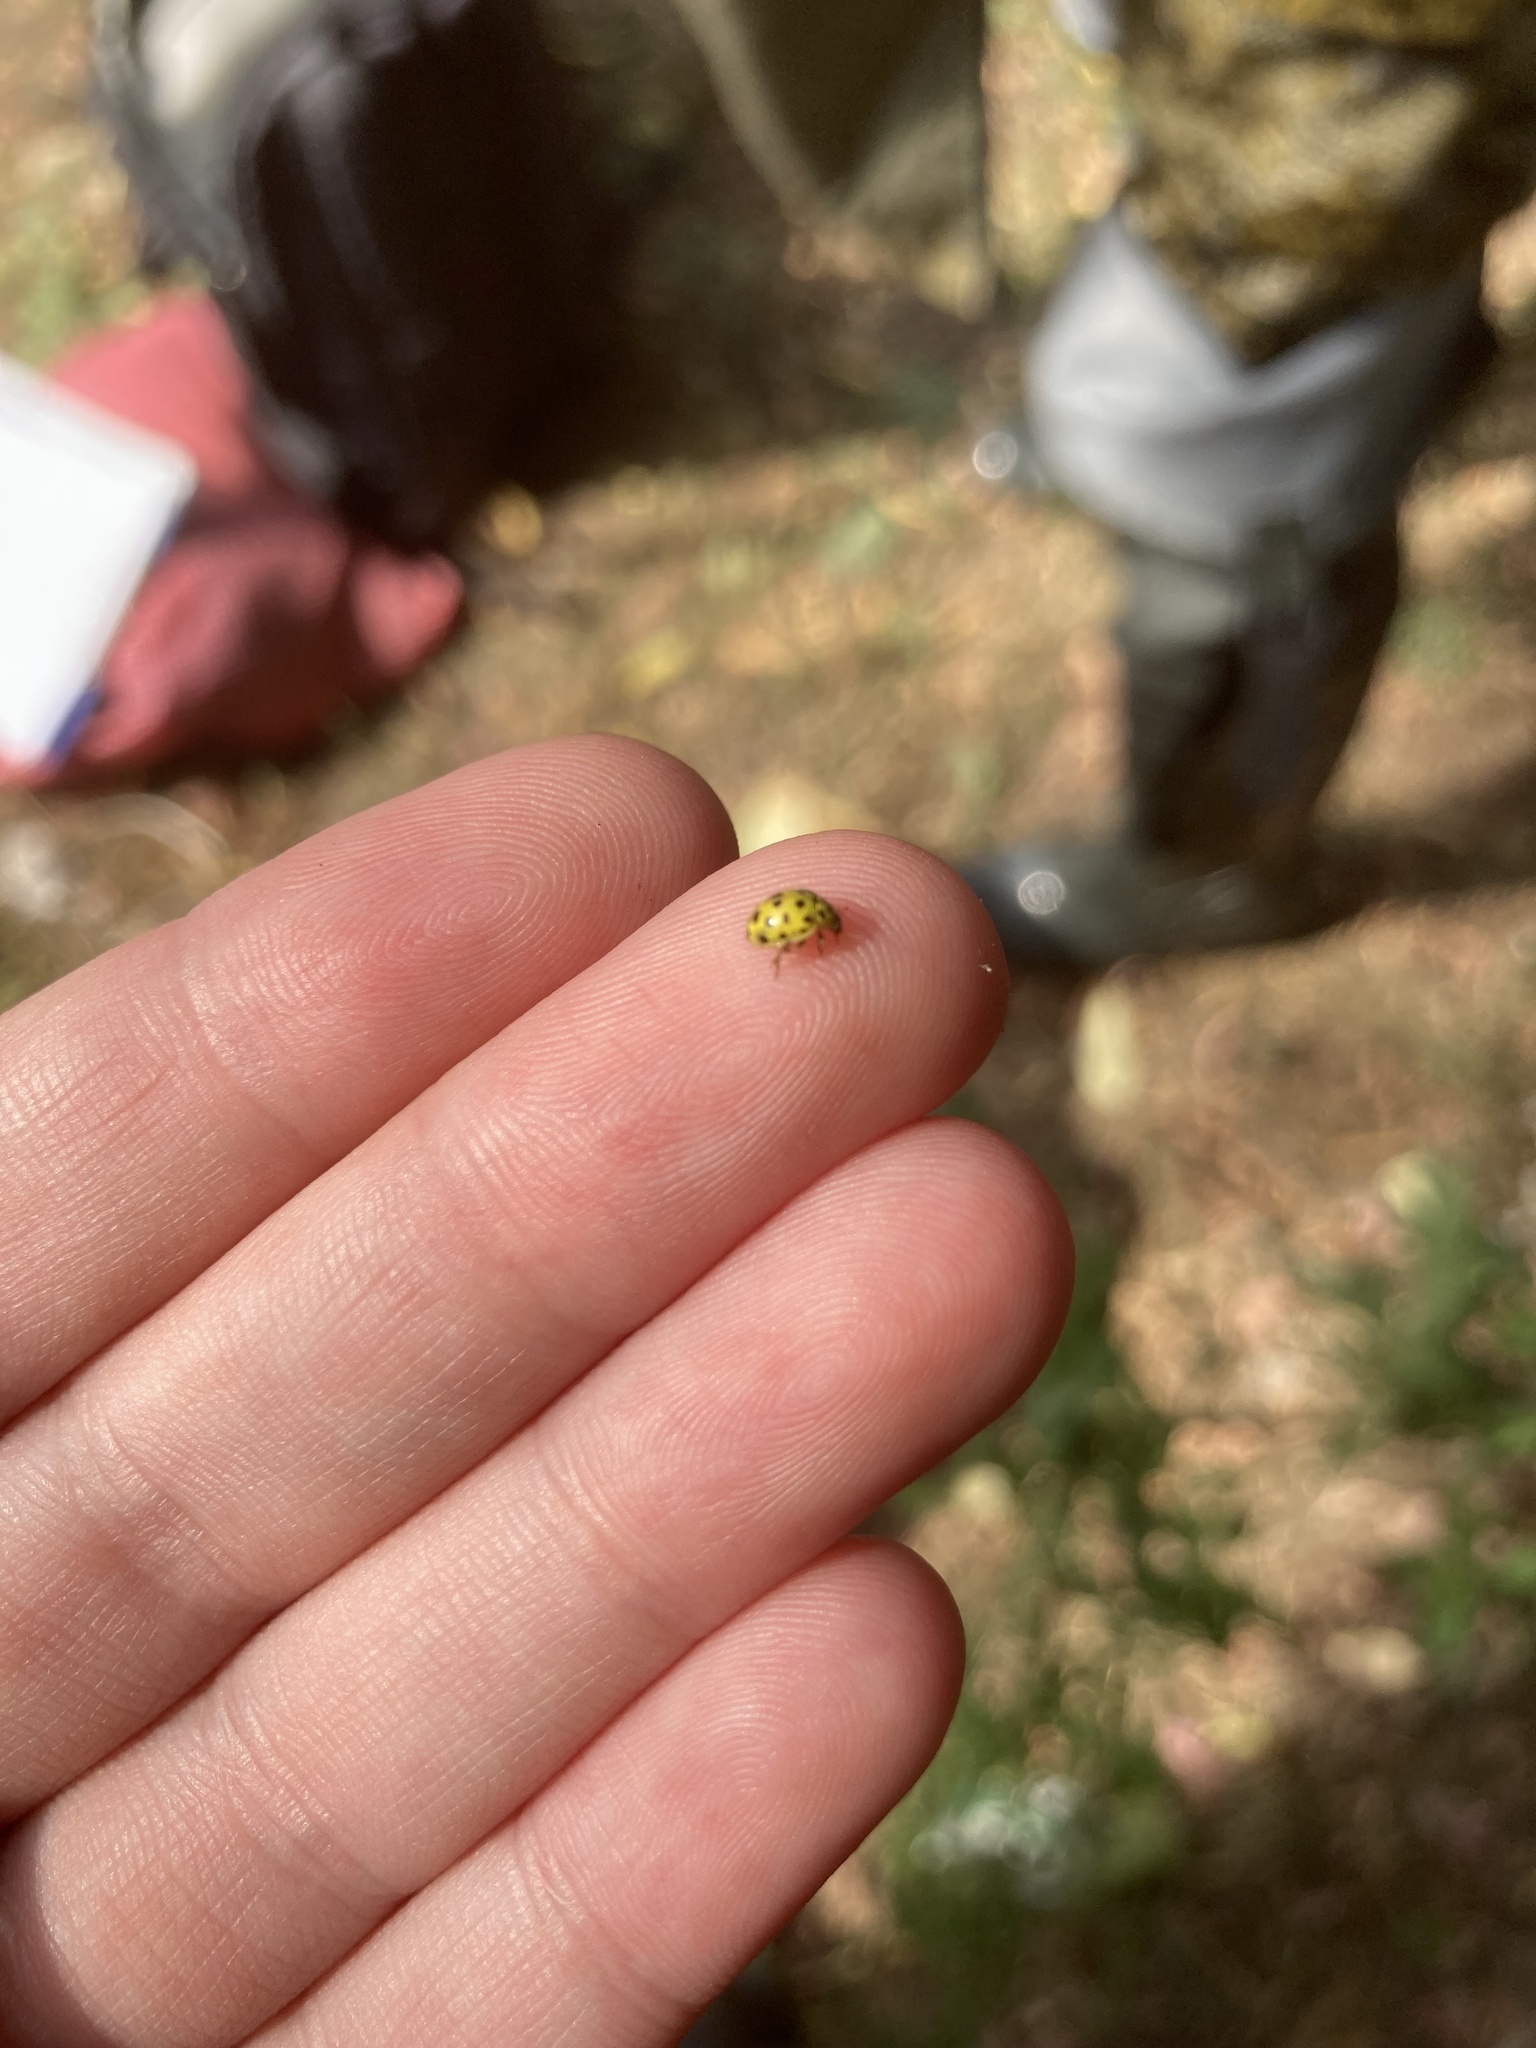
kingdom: Animalia
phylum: Arthropoda
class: Insecta
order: Coleoptera
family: Coccinellidae
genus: Psyllobora
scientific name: Psyllobora vigintiduopunctata
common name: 22-spot ladybird
